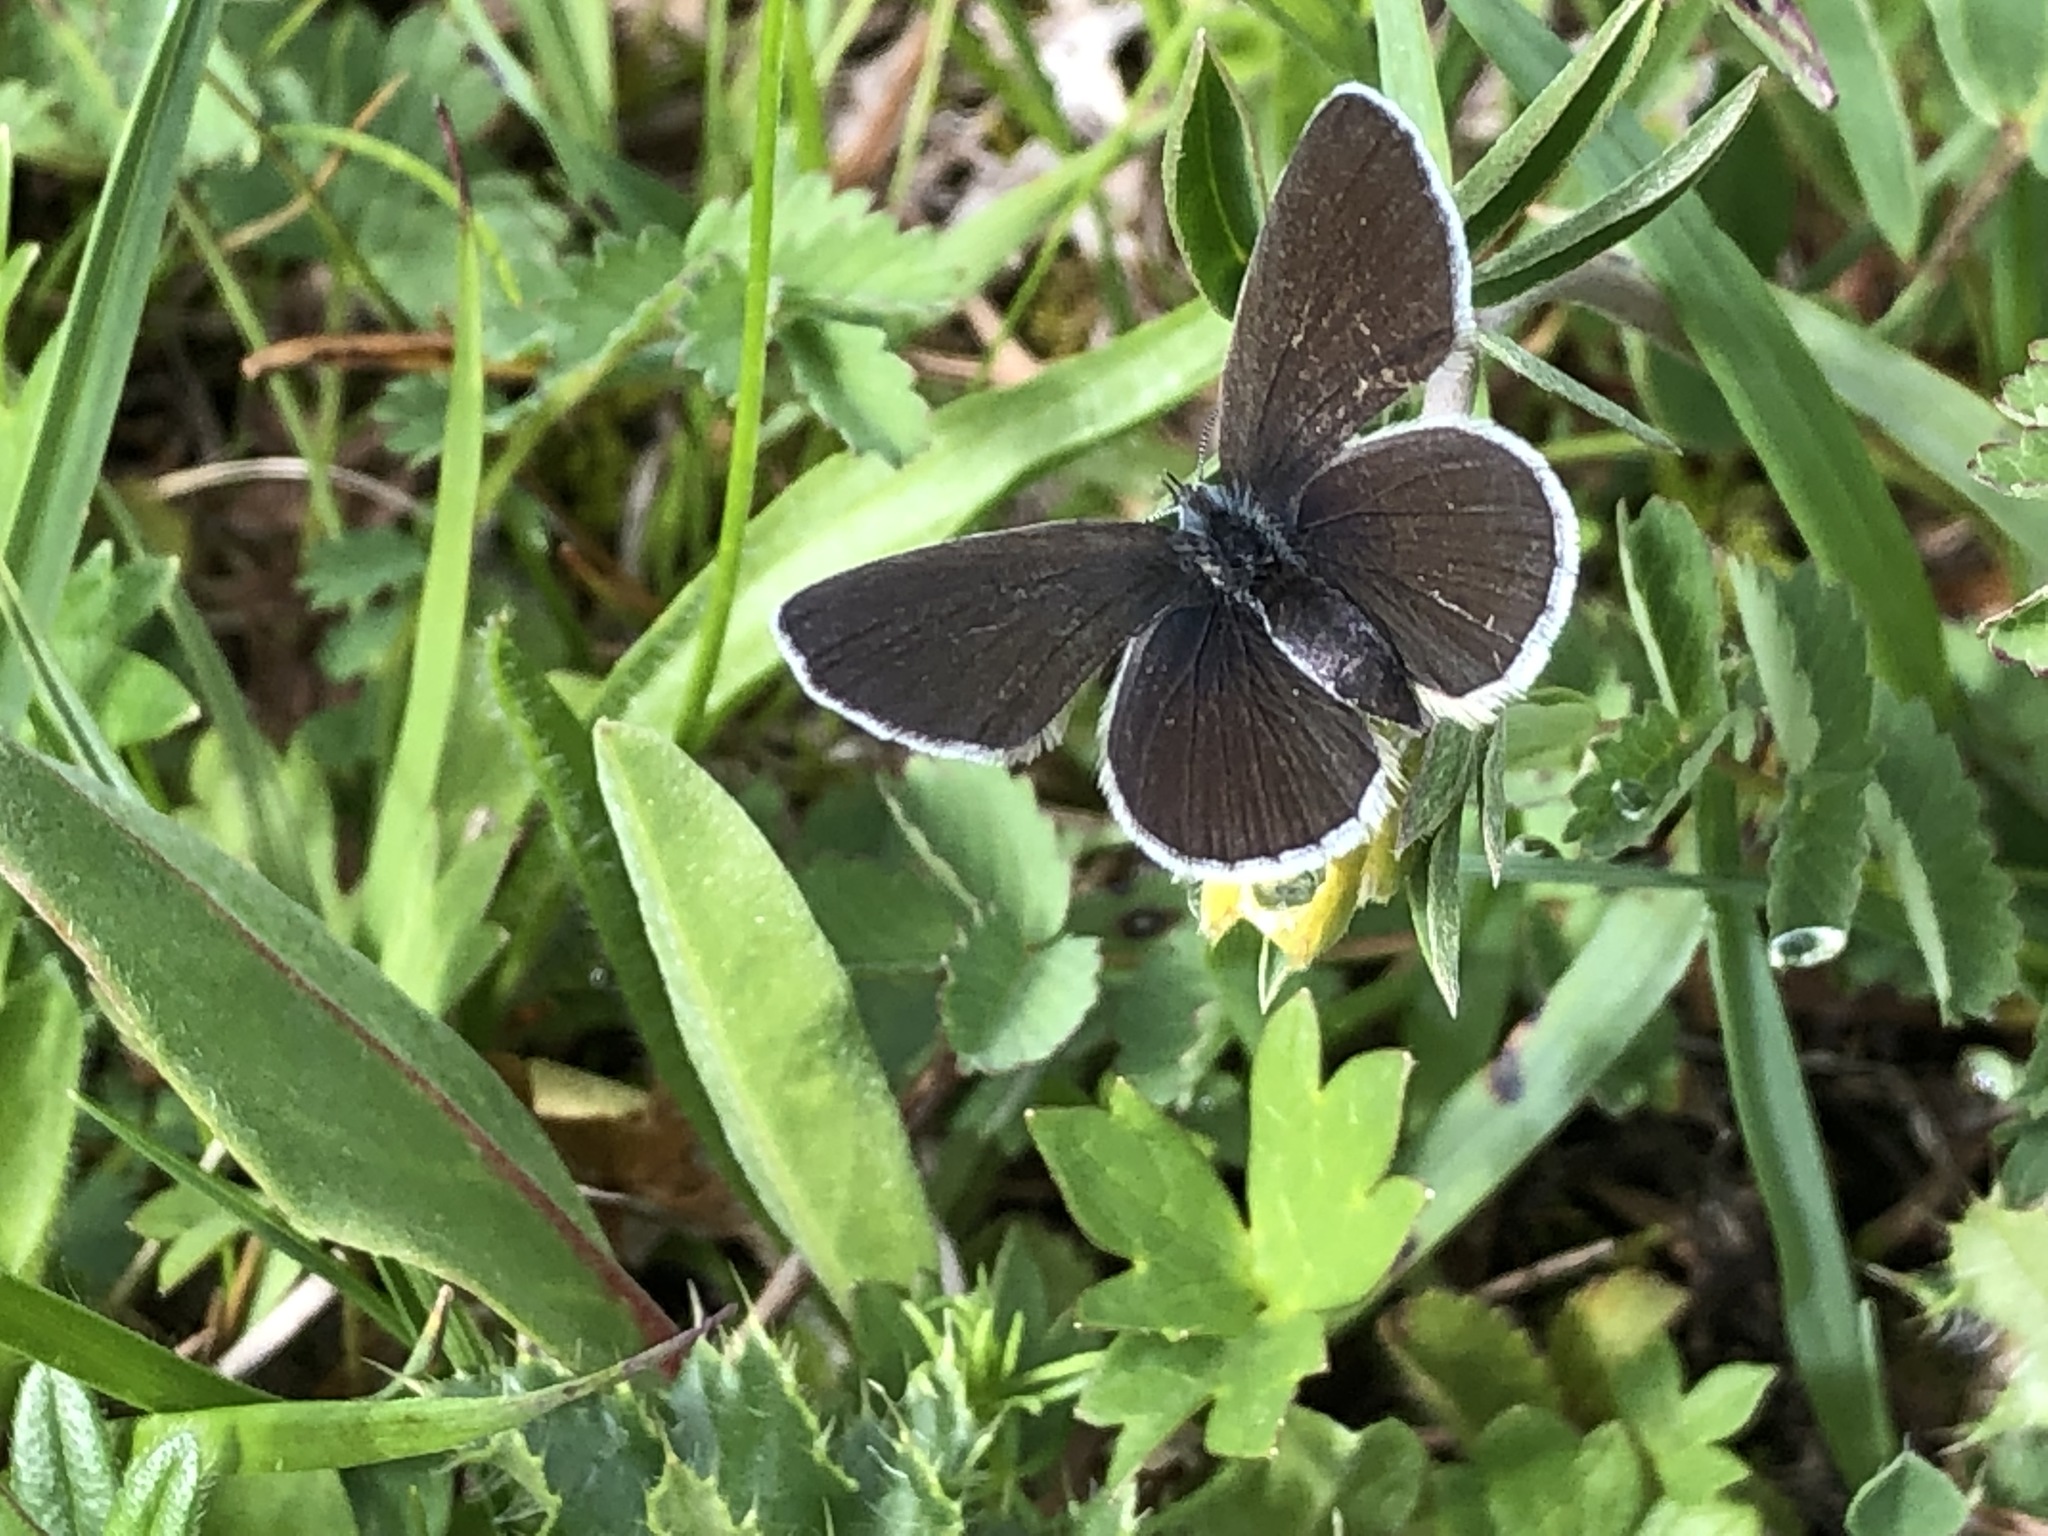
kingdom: Animalia
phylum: Arthropoda
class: Insecta
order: Lepidoptera
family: Lycaenidae
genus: Cupido
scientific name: Cupido minimus
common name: Small blue
